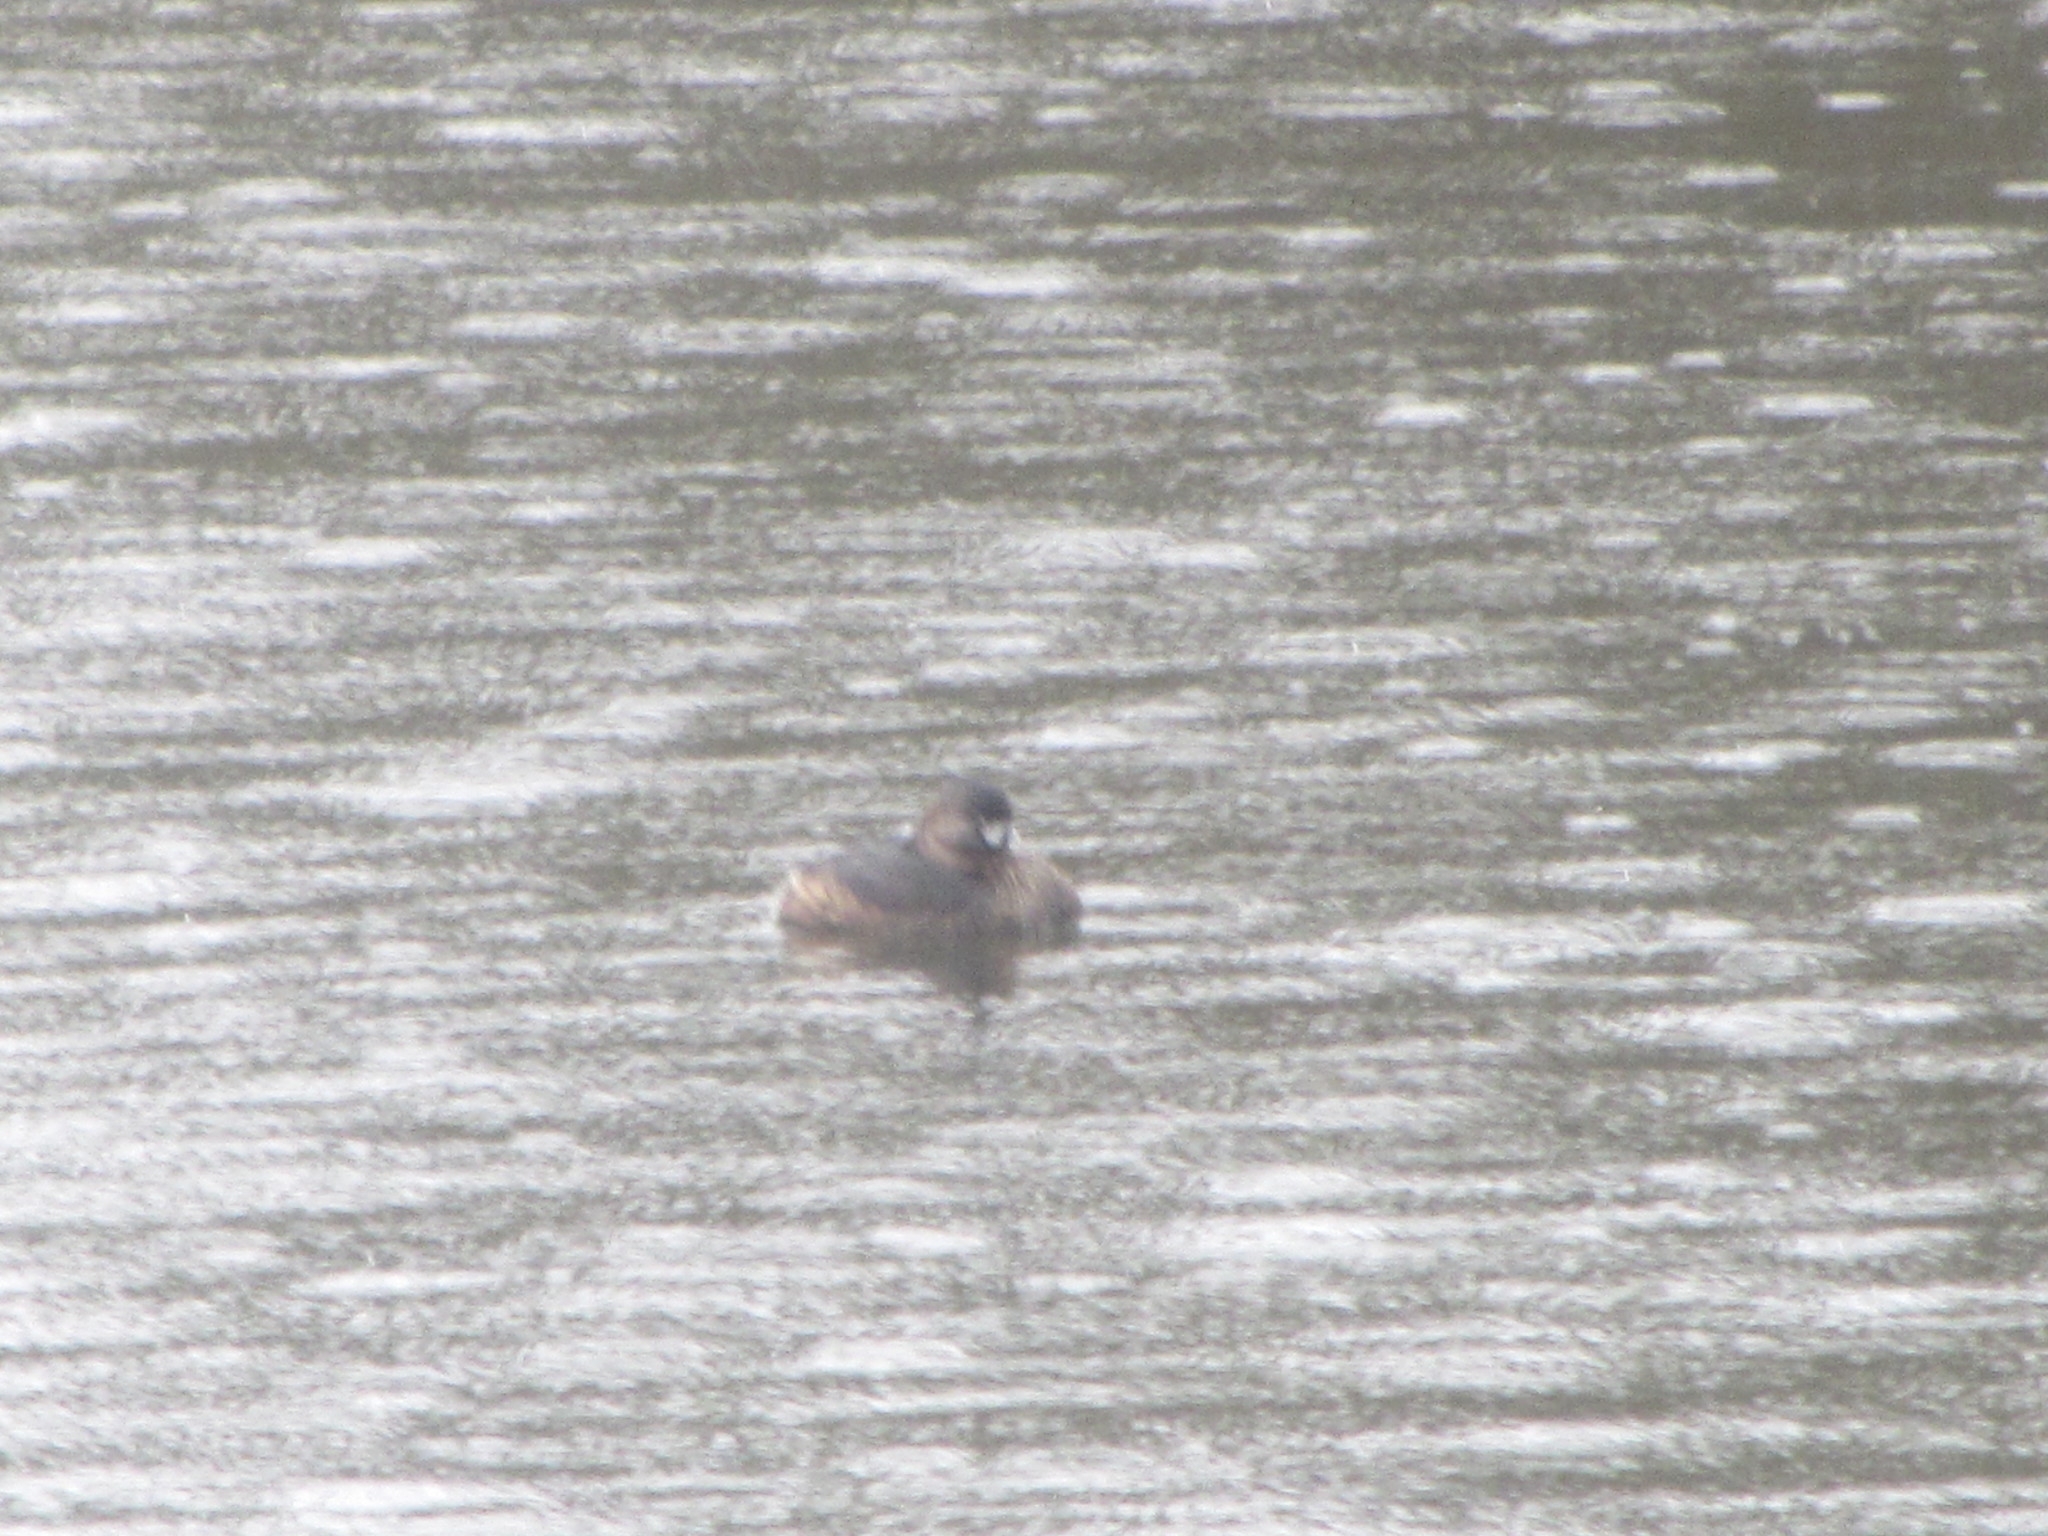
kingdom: Animalia
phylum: Chordata
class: Aves
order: Podicipediformes
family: Podicipedidae
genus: Podilymbus
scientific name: Podilymbus podiceps
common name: Pied-billed grebe
